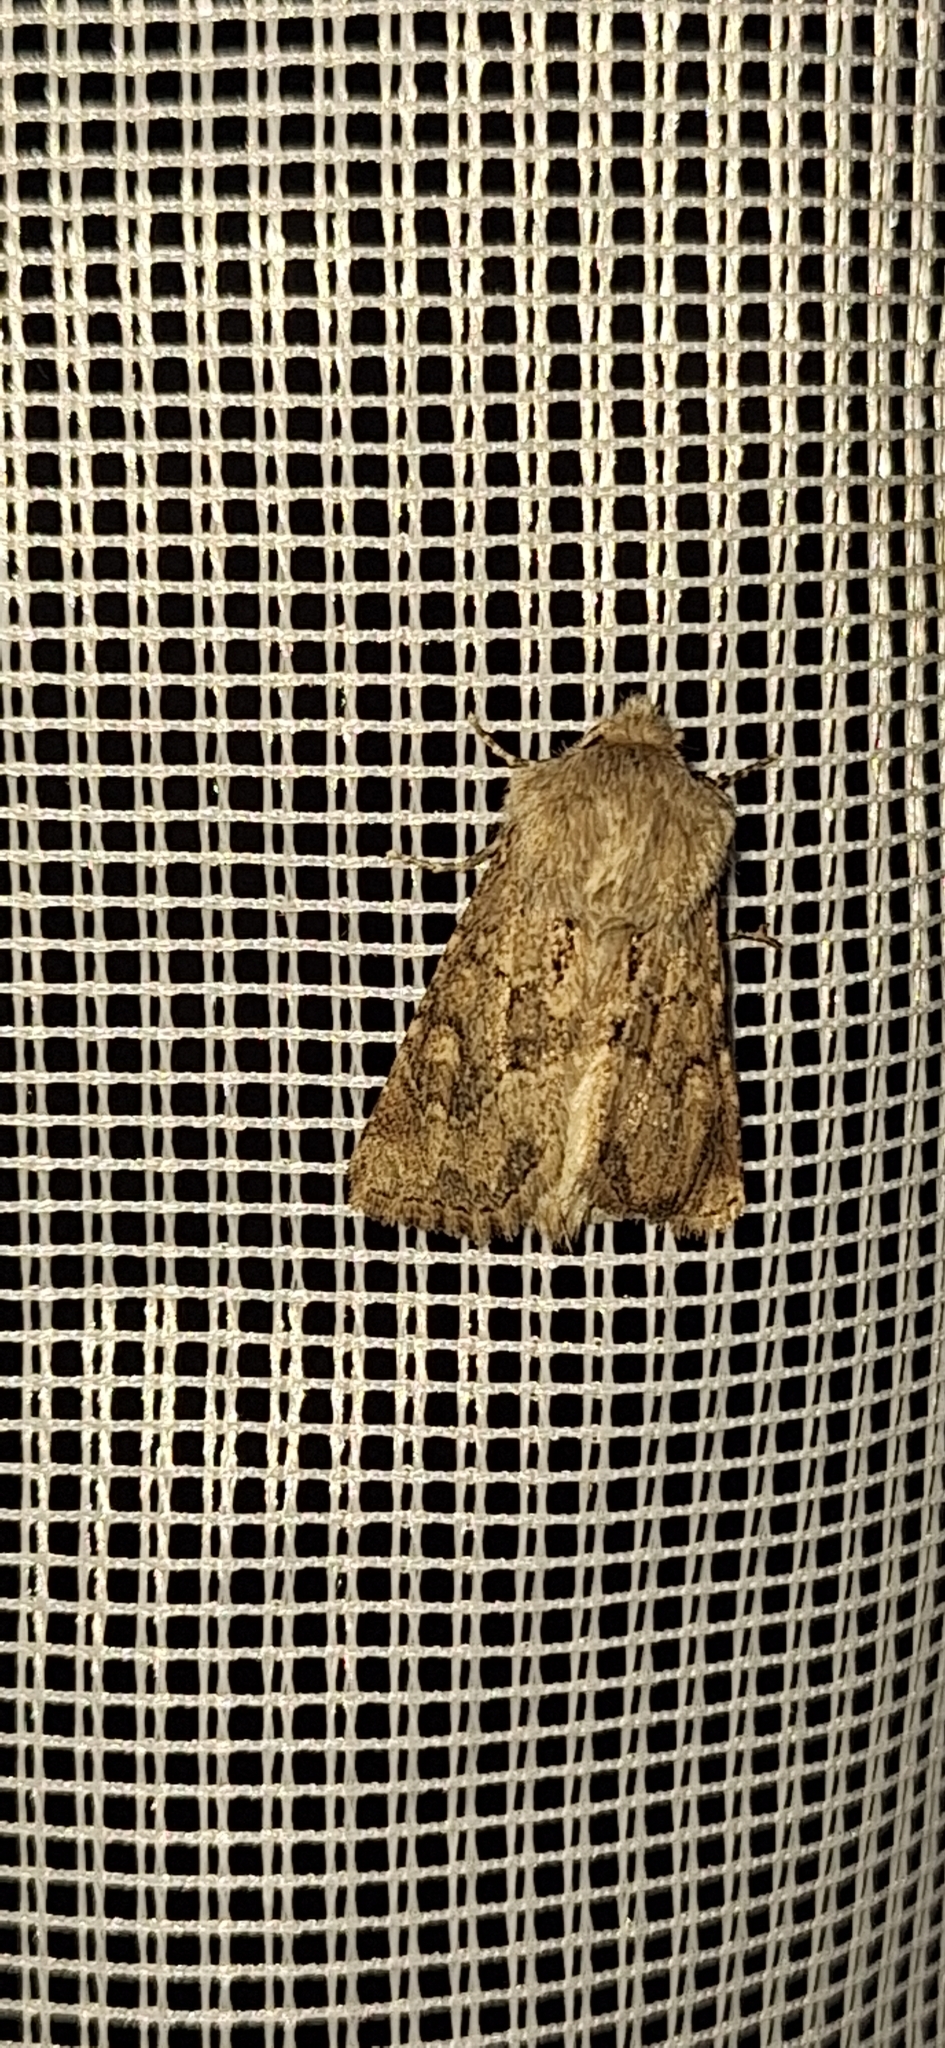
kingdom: Animalia
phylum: Arthropoda
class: Insecta
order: Lepidoptera
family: Noctuidae
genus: Luperina
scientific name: Luperina testacea
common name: Flounced rustic
